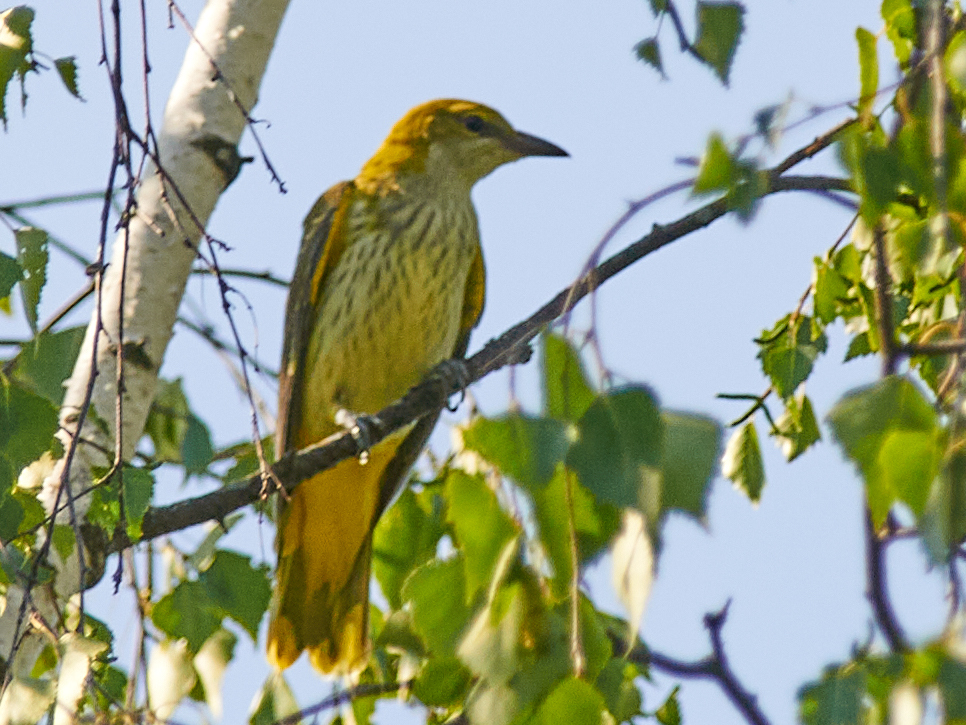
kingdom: Animalia
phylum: Chordata
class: Aves
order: Passeriformes
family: Oriolidae
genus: Oriolus
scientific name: Oriolus oriolus
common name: Eurasian golden oriole
